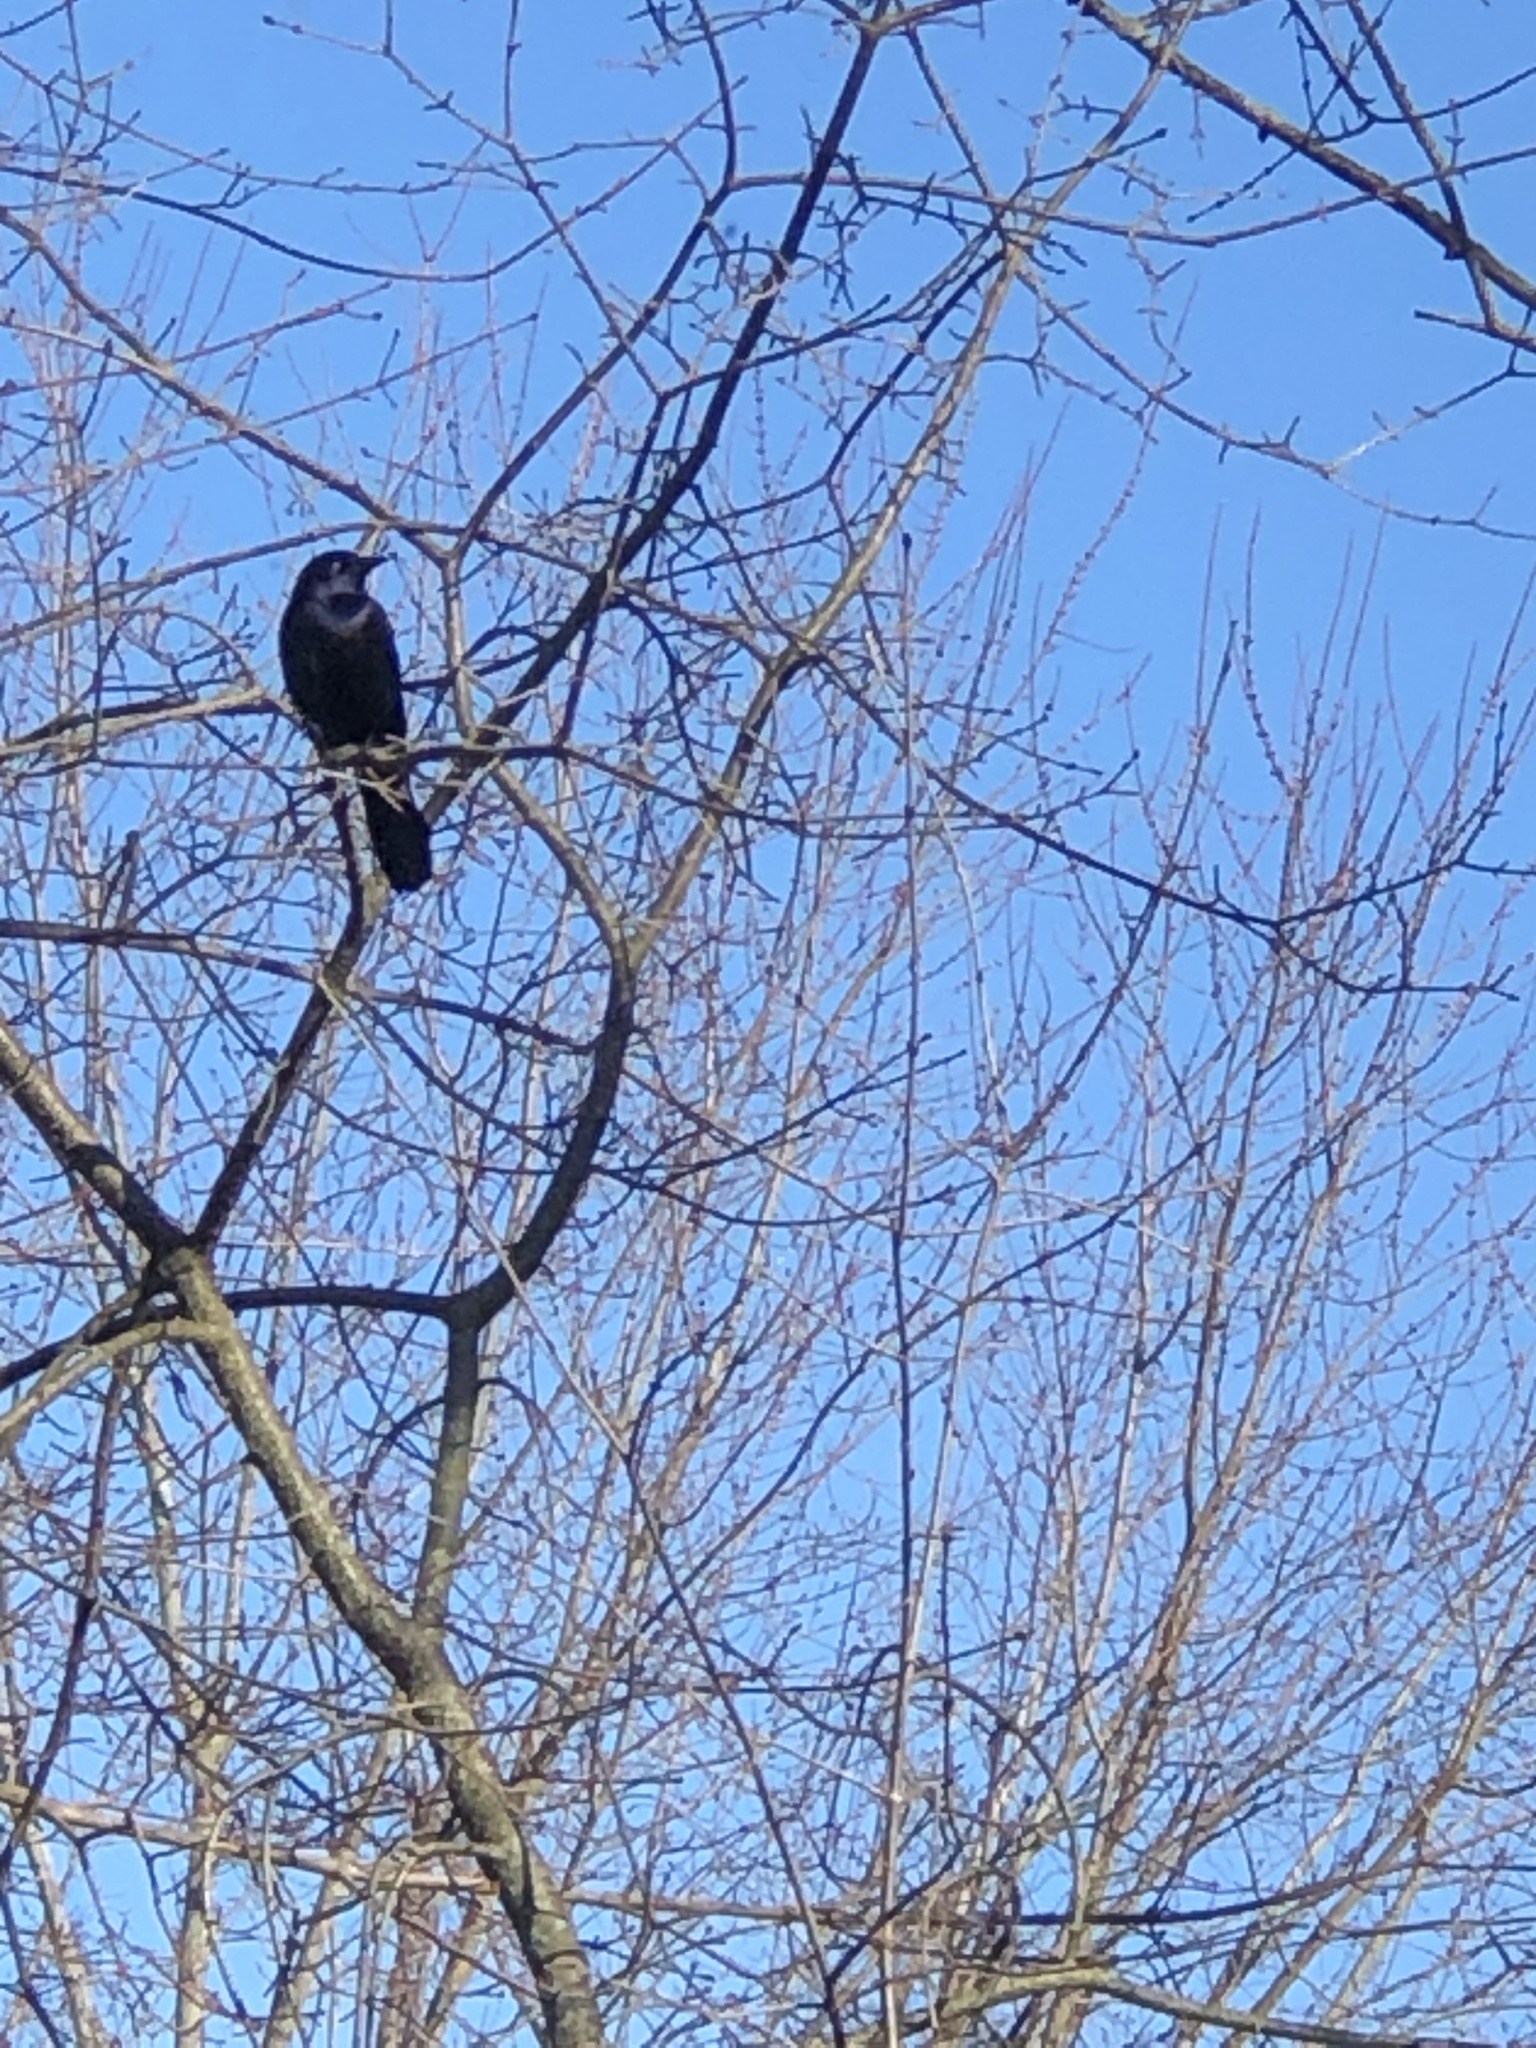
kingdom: Animalia
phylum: Chordata
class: Aves
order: Passeriformes
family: Icteridae
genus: Quiscalus
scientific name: Quiscalus quiscula
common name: Common grackle
